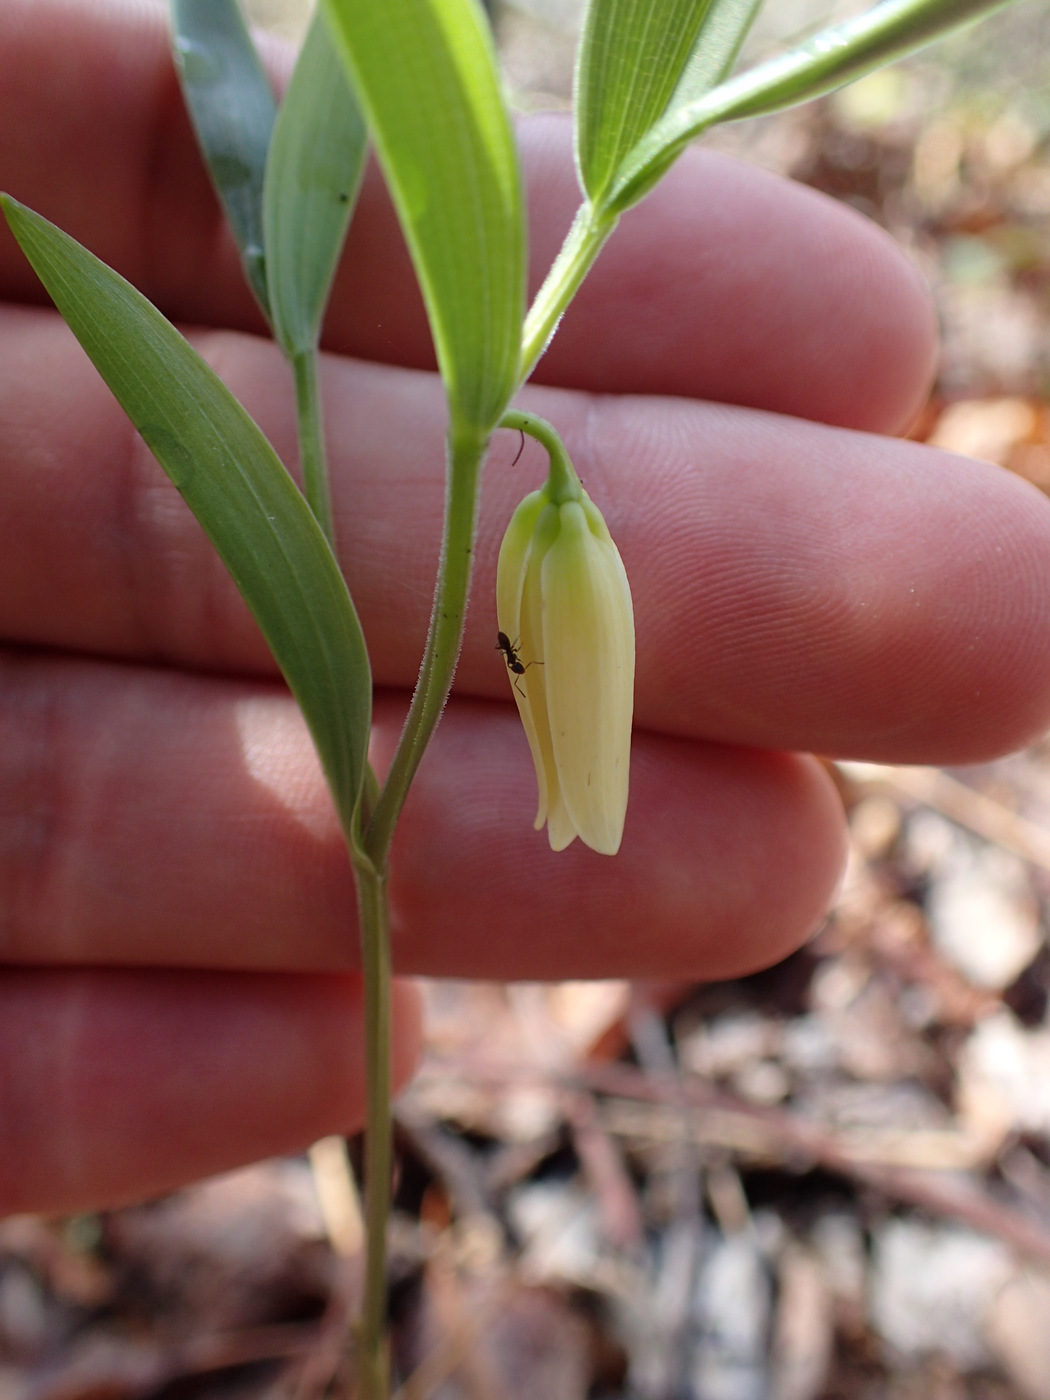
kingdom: Plantae
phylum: Tracheophyta
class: Liliopsida
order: Liliales
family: Colchicaceae
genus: Uvularia
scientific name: Uvularia puberula
